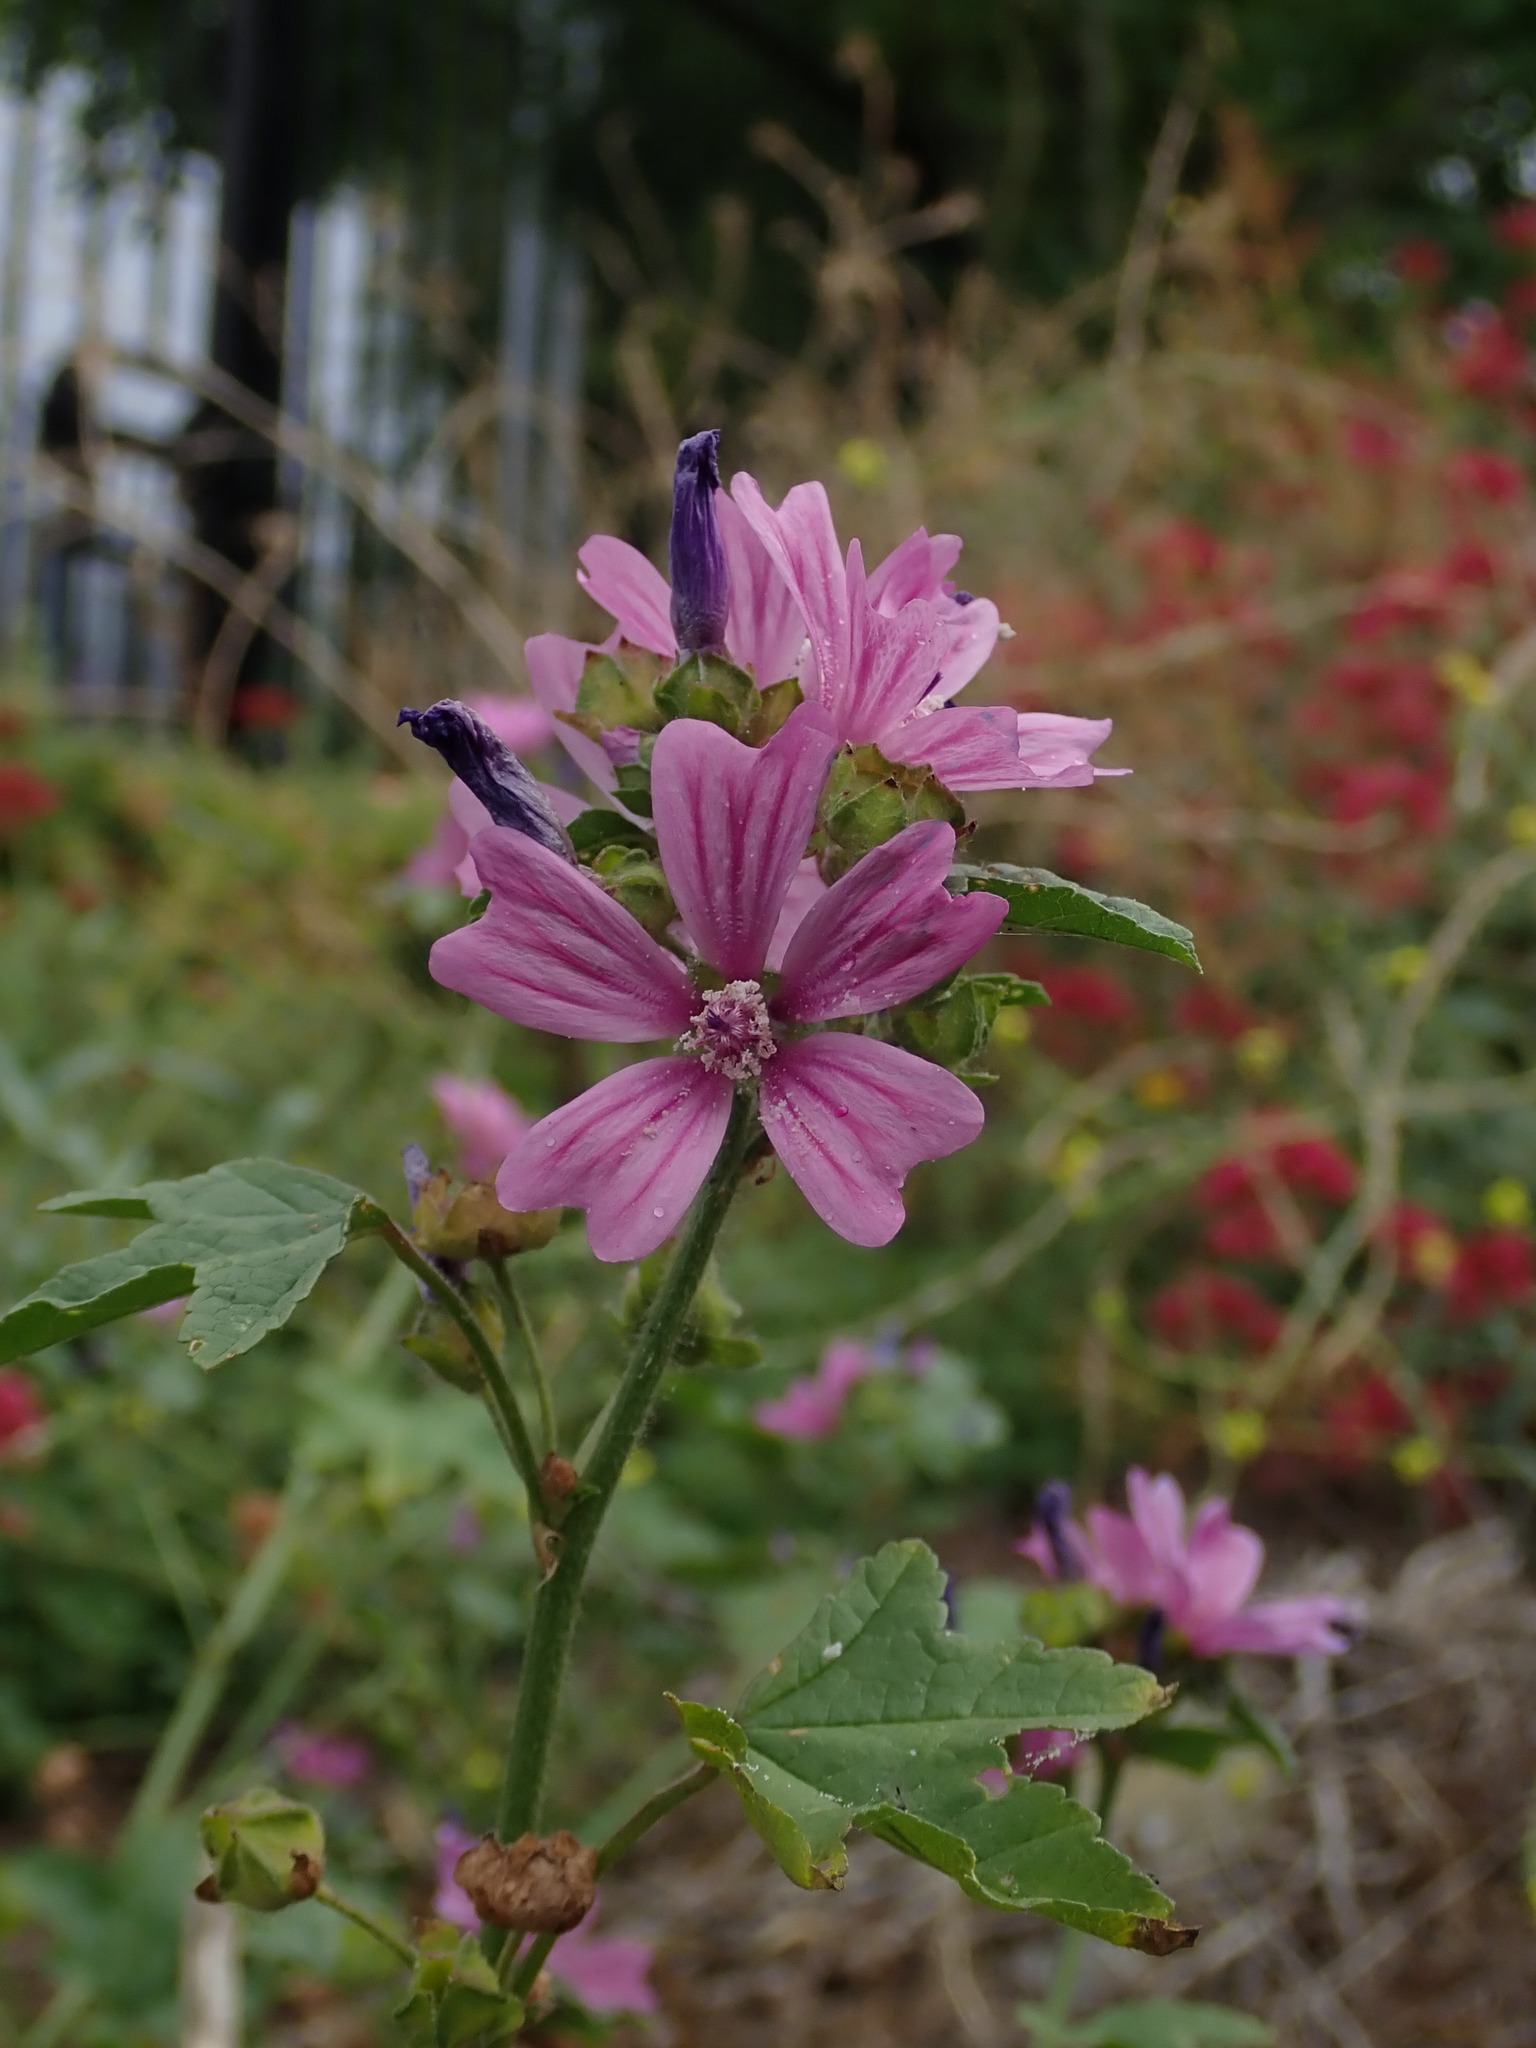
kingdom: Plantae
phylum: Tracheophyta
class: Magnoliopsida
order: Malvales
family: Malvaceae
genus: Malva
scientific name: Malva sylvestris
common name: Common mallow
